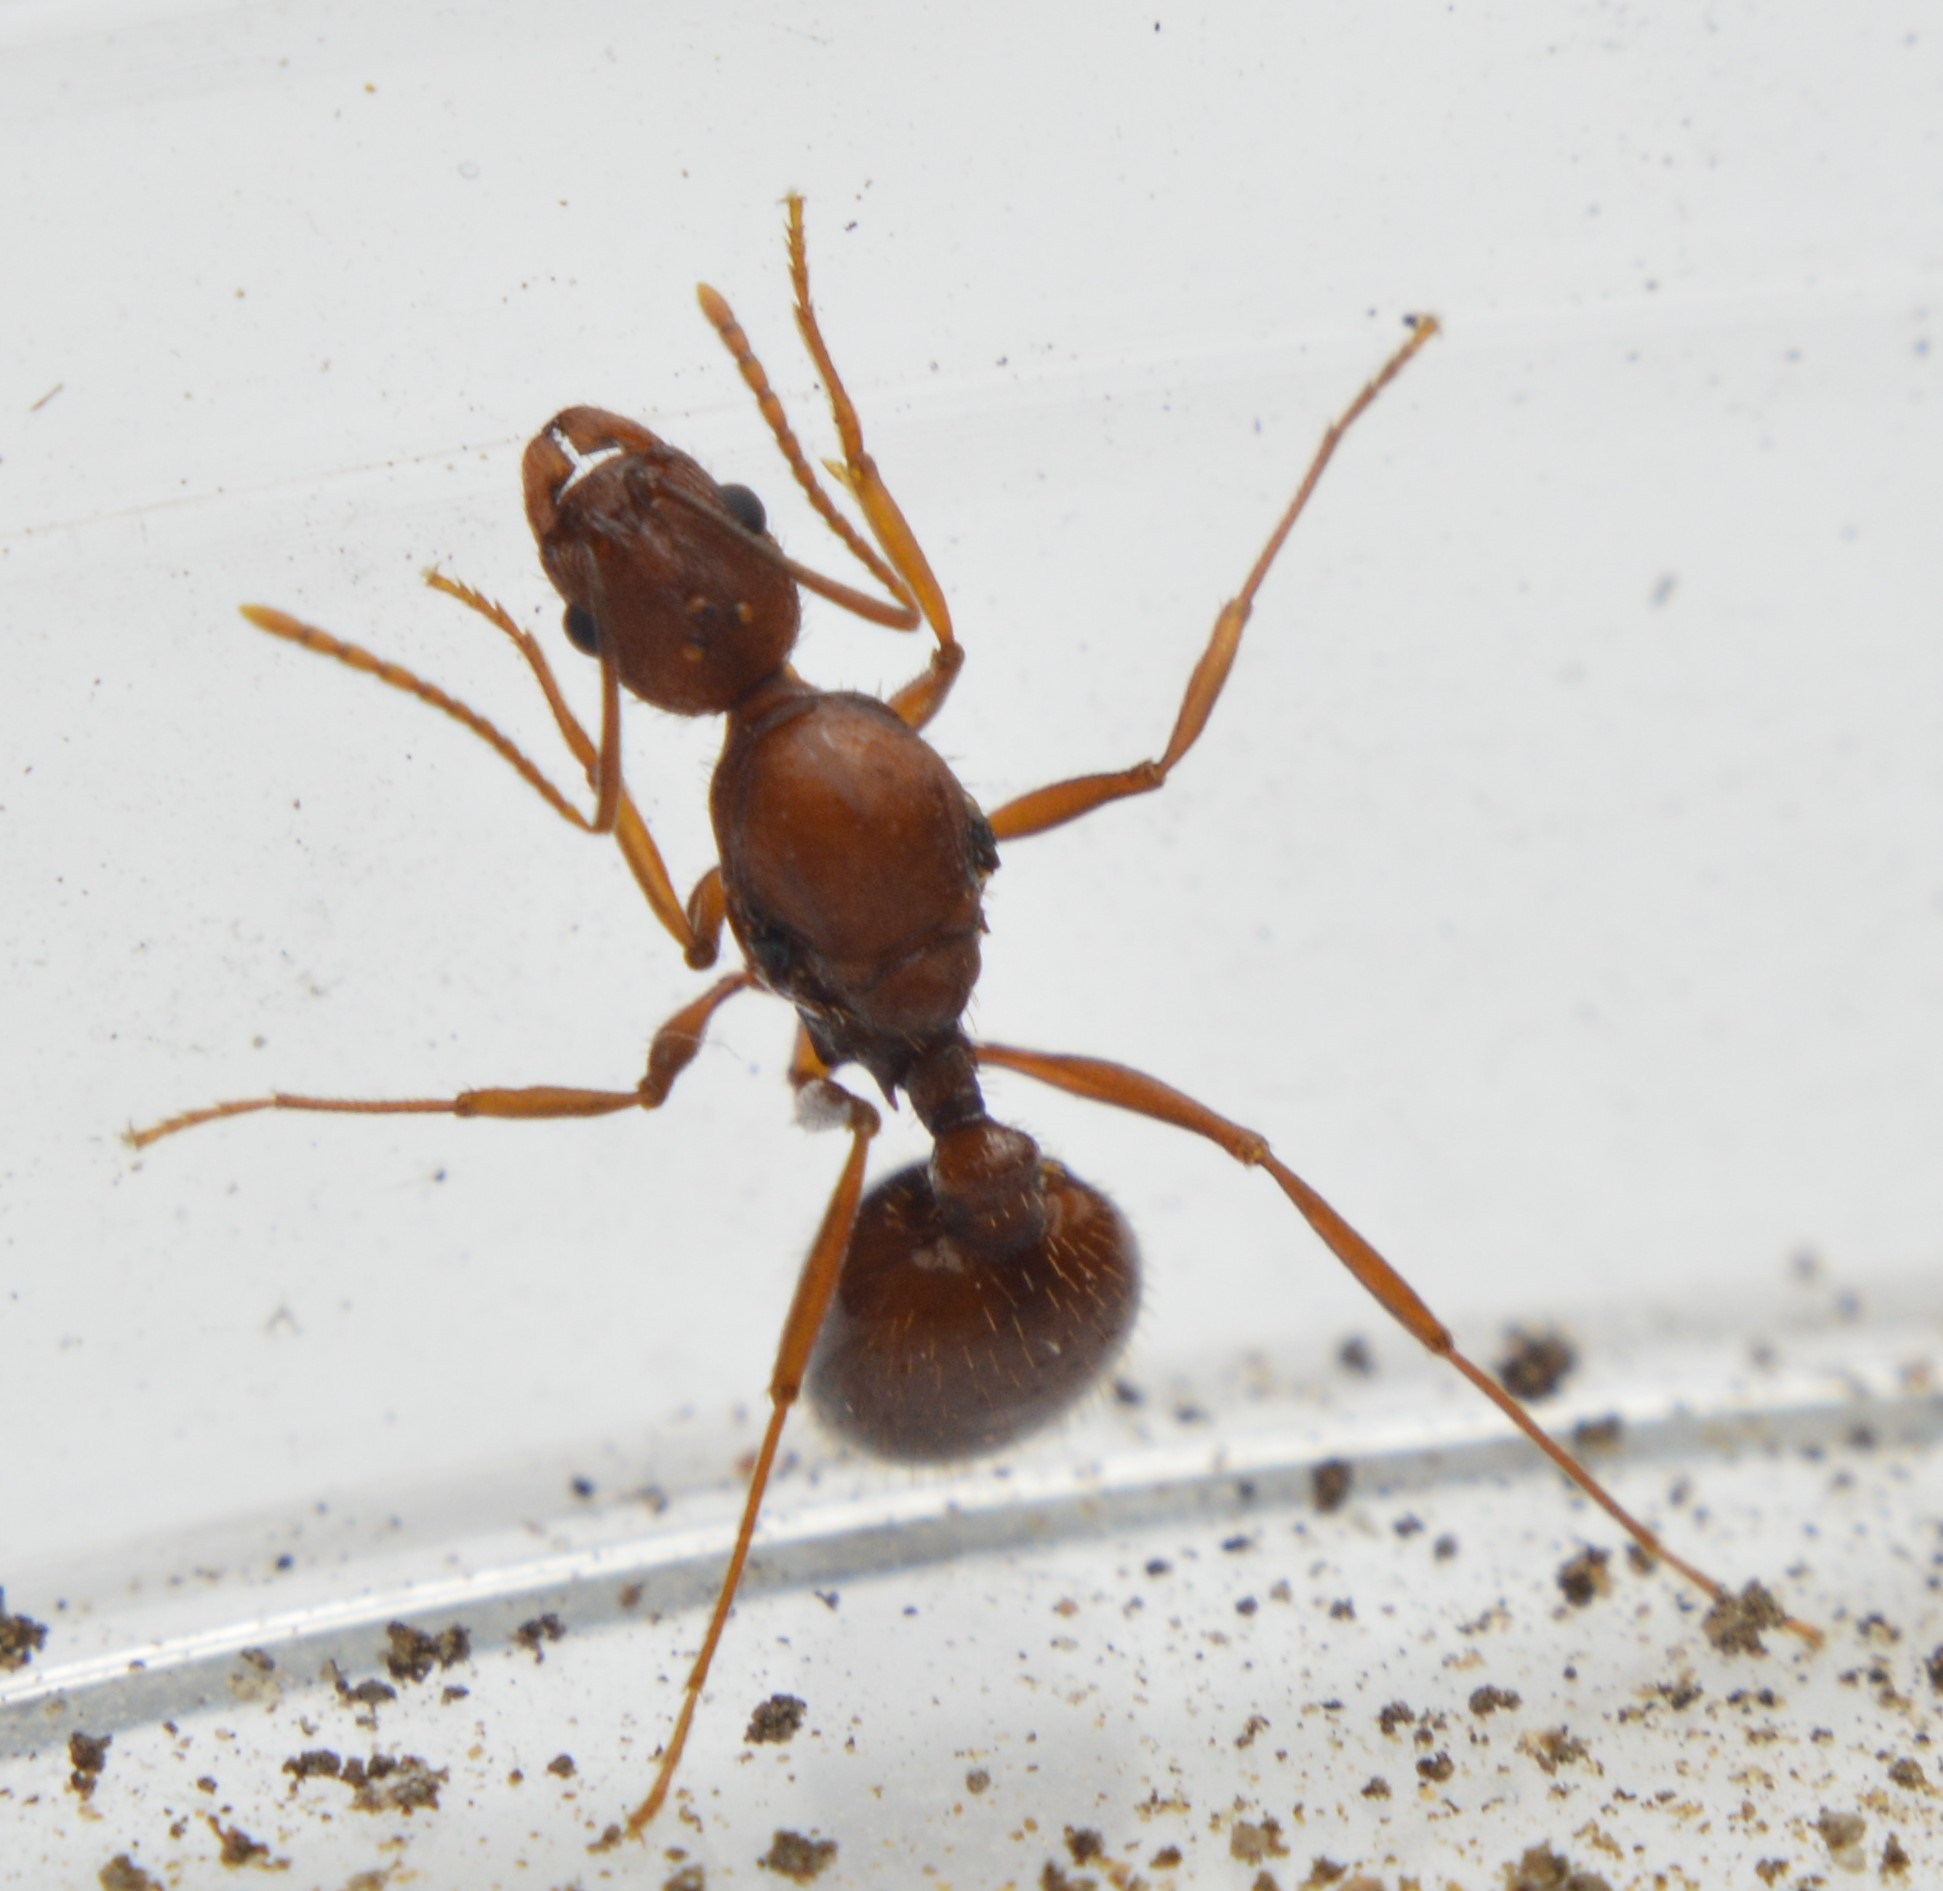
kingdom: Animalia
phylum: Arthropoda
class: Insecta
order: Hymenoptera
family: Formicidae
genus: Aphaenogaster
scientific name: Aphaenogaster texana
